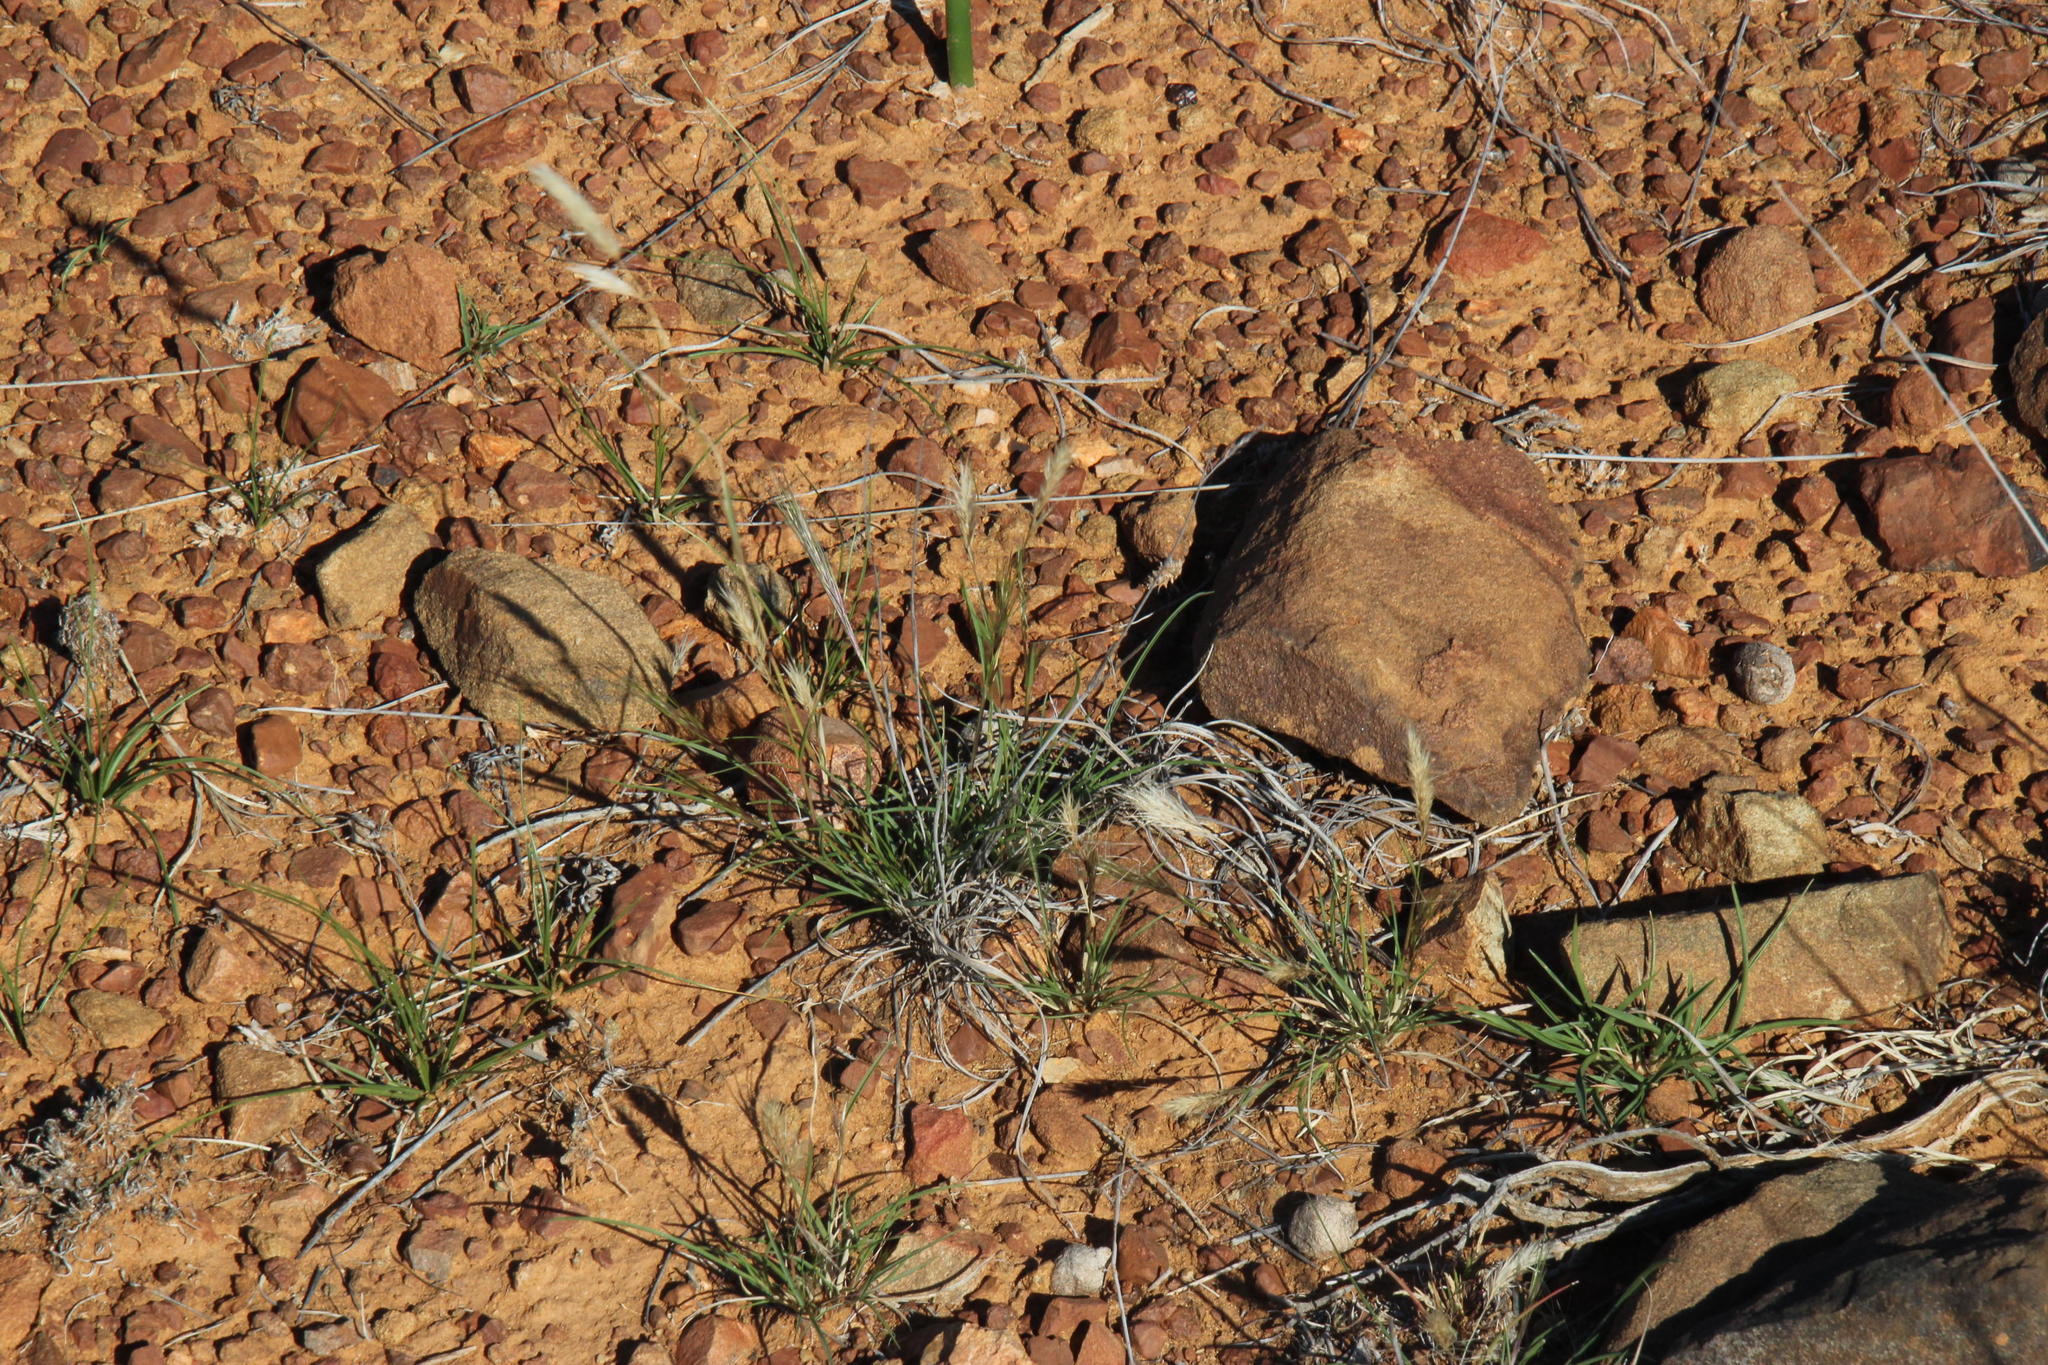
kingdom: Plantae
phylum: Tracheophyta
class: Liliopsida
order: Poales
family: Poaceae
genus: Aristida
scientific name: Aristida congesta
